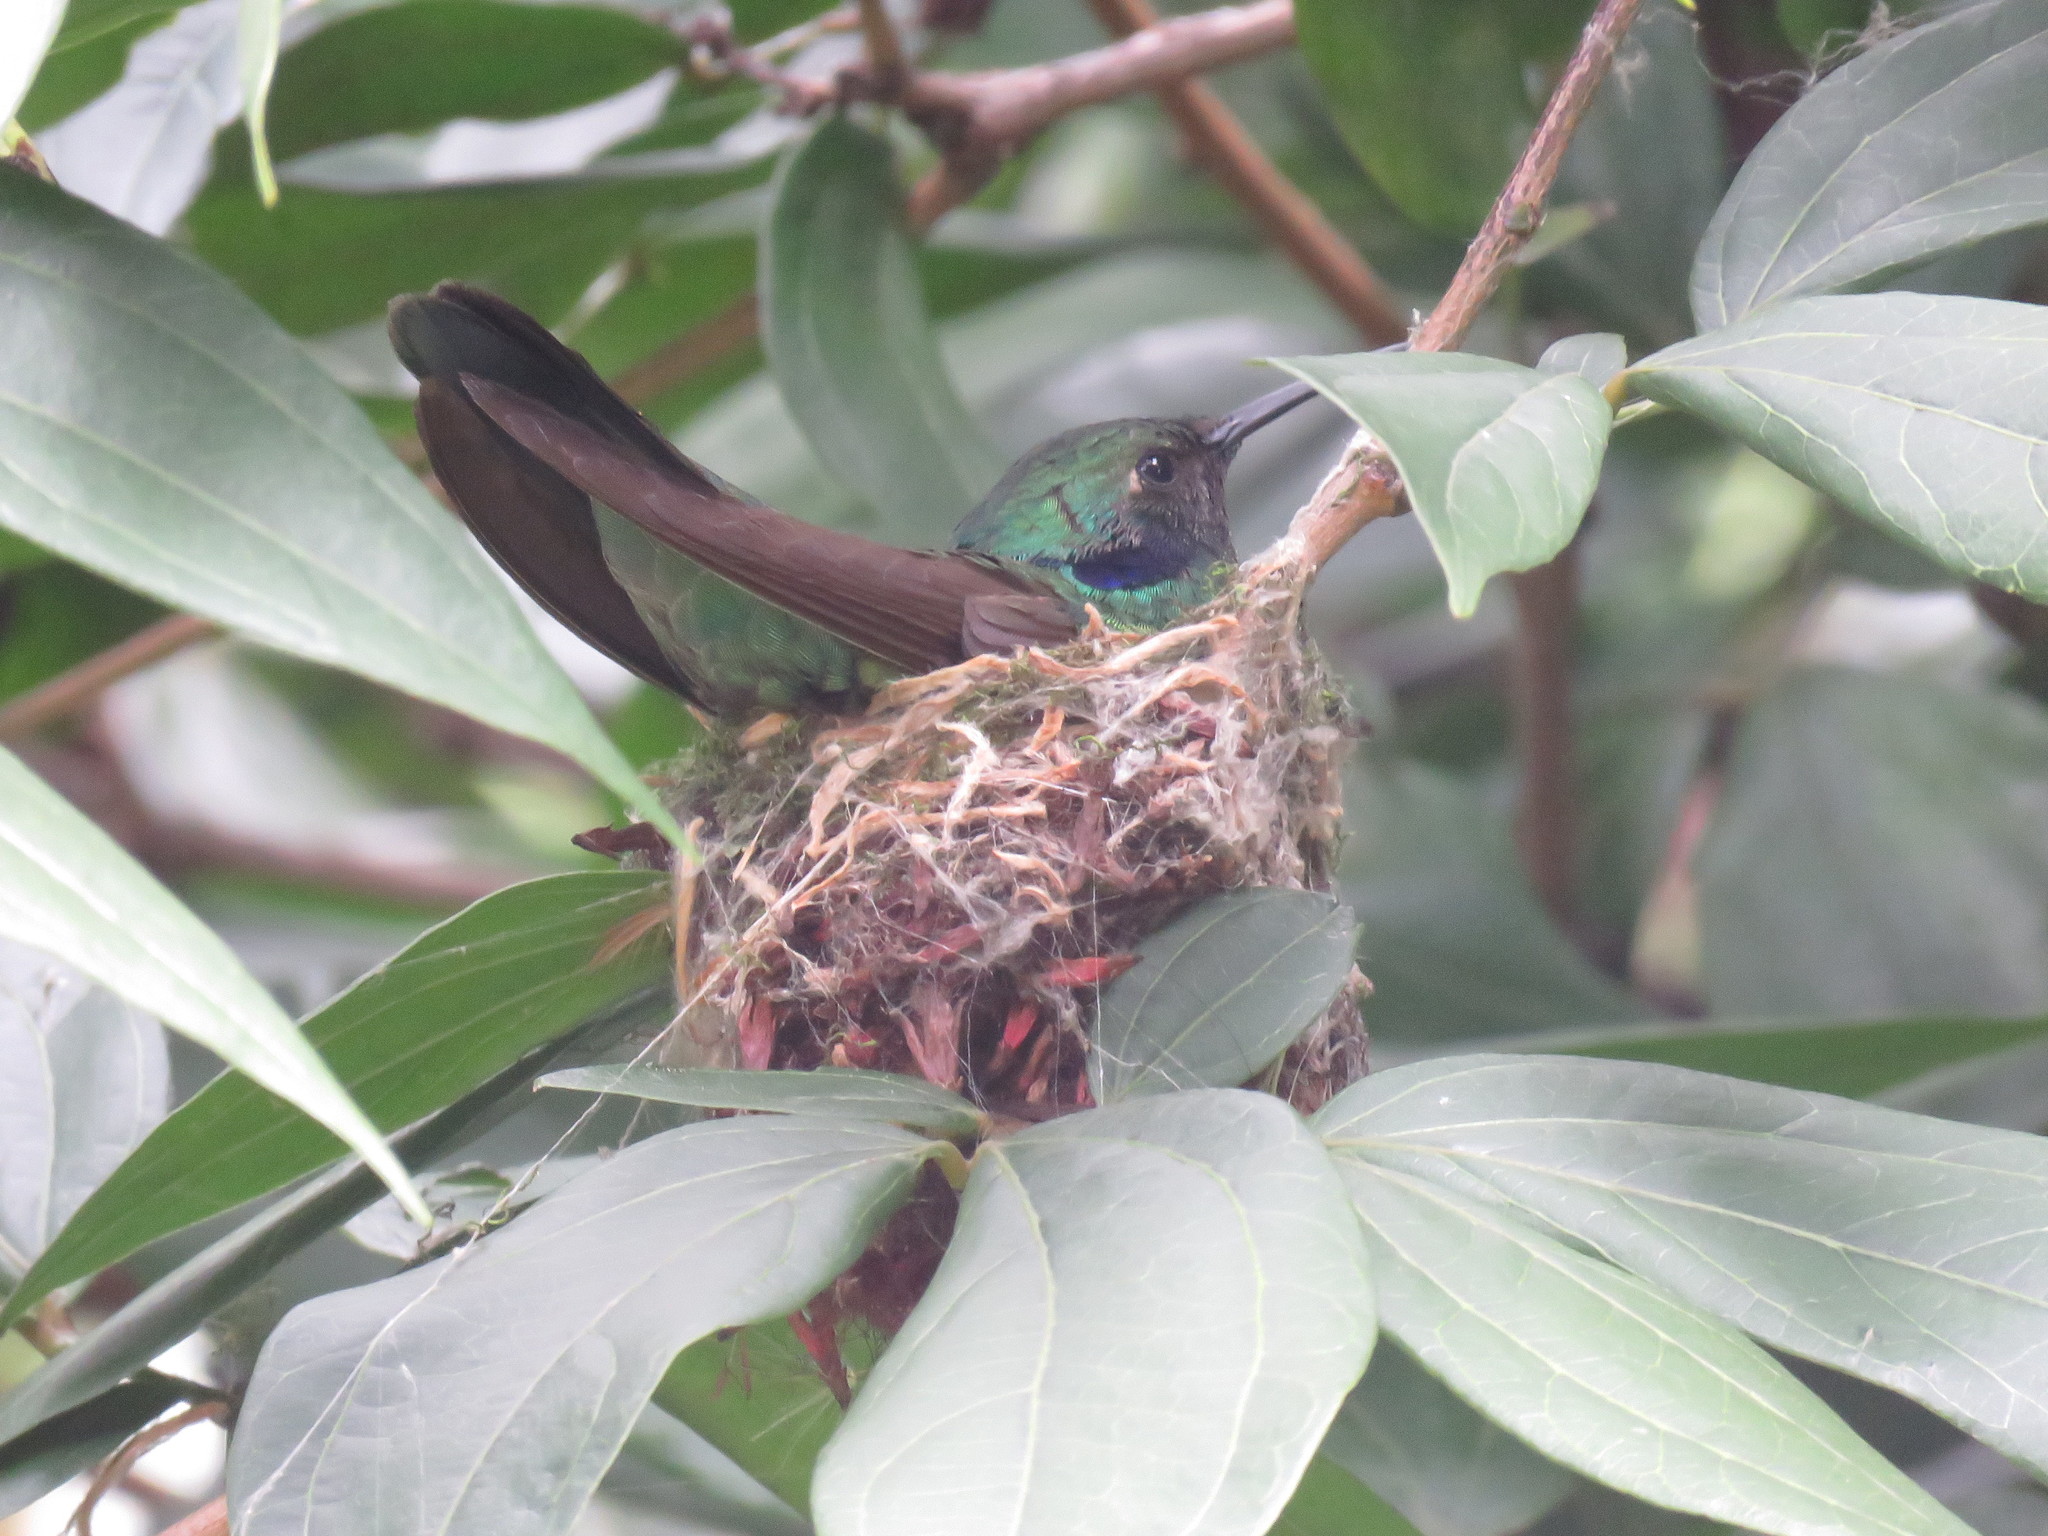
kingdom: Animalia
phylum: Chordata
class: Aves
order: Apodiformes
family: Trochilidae
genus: Colibri
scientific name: Colibri coruscans
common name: Sparkling violetear
